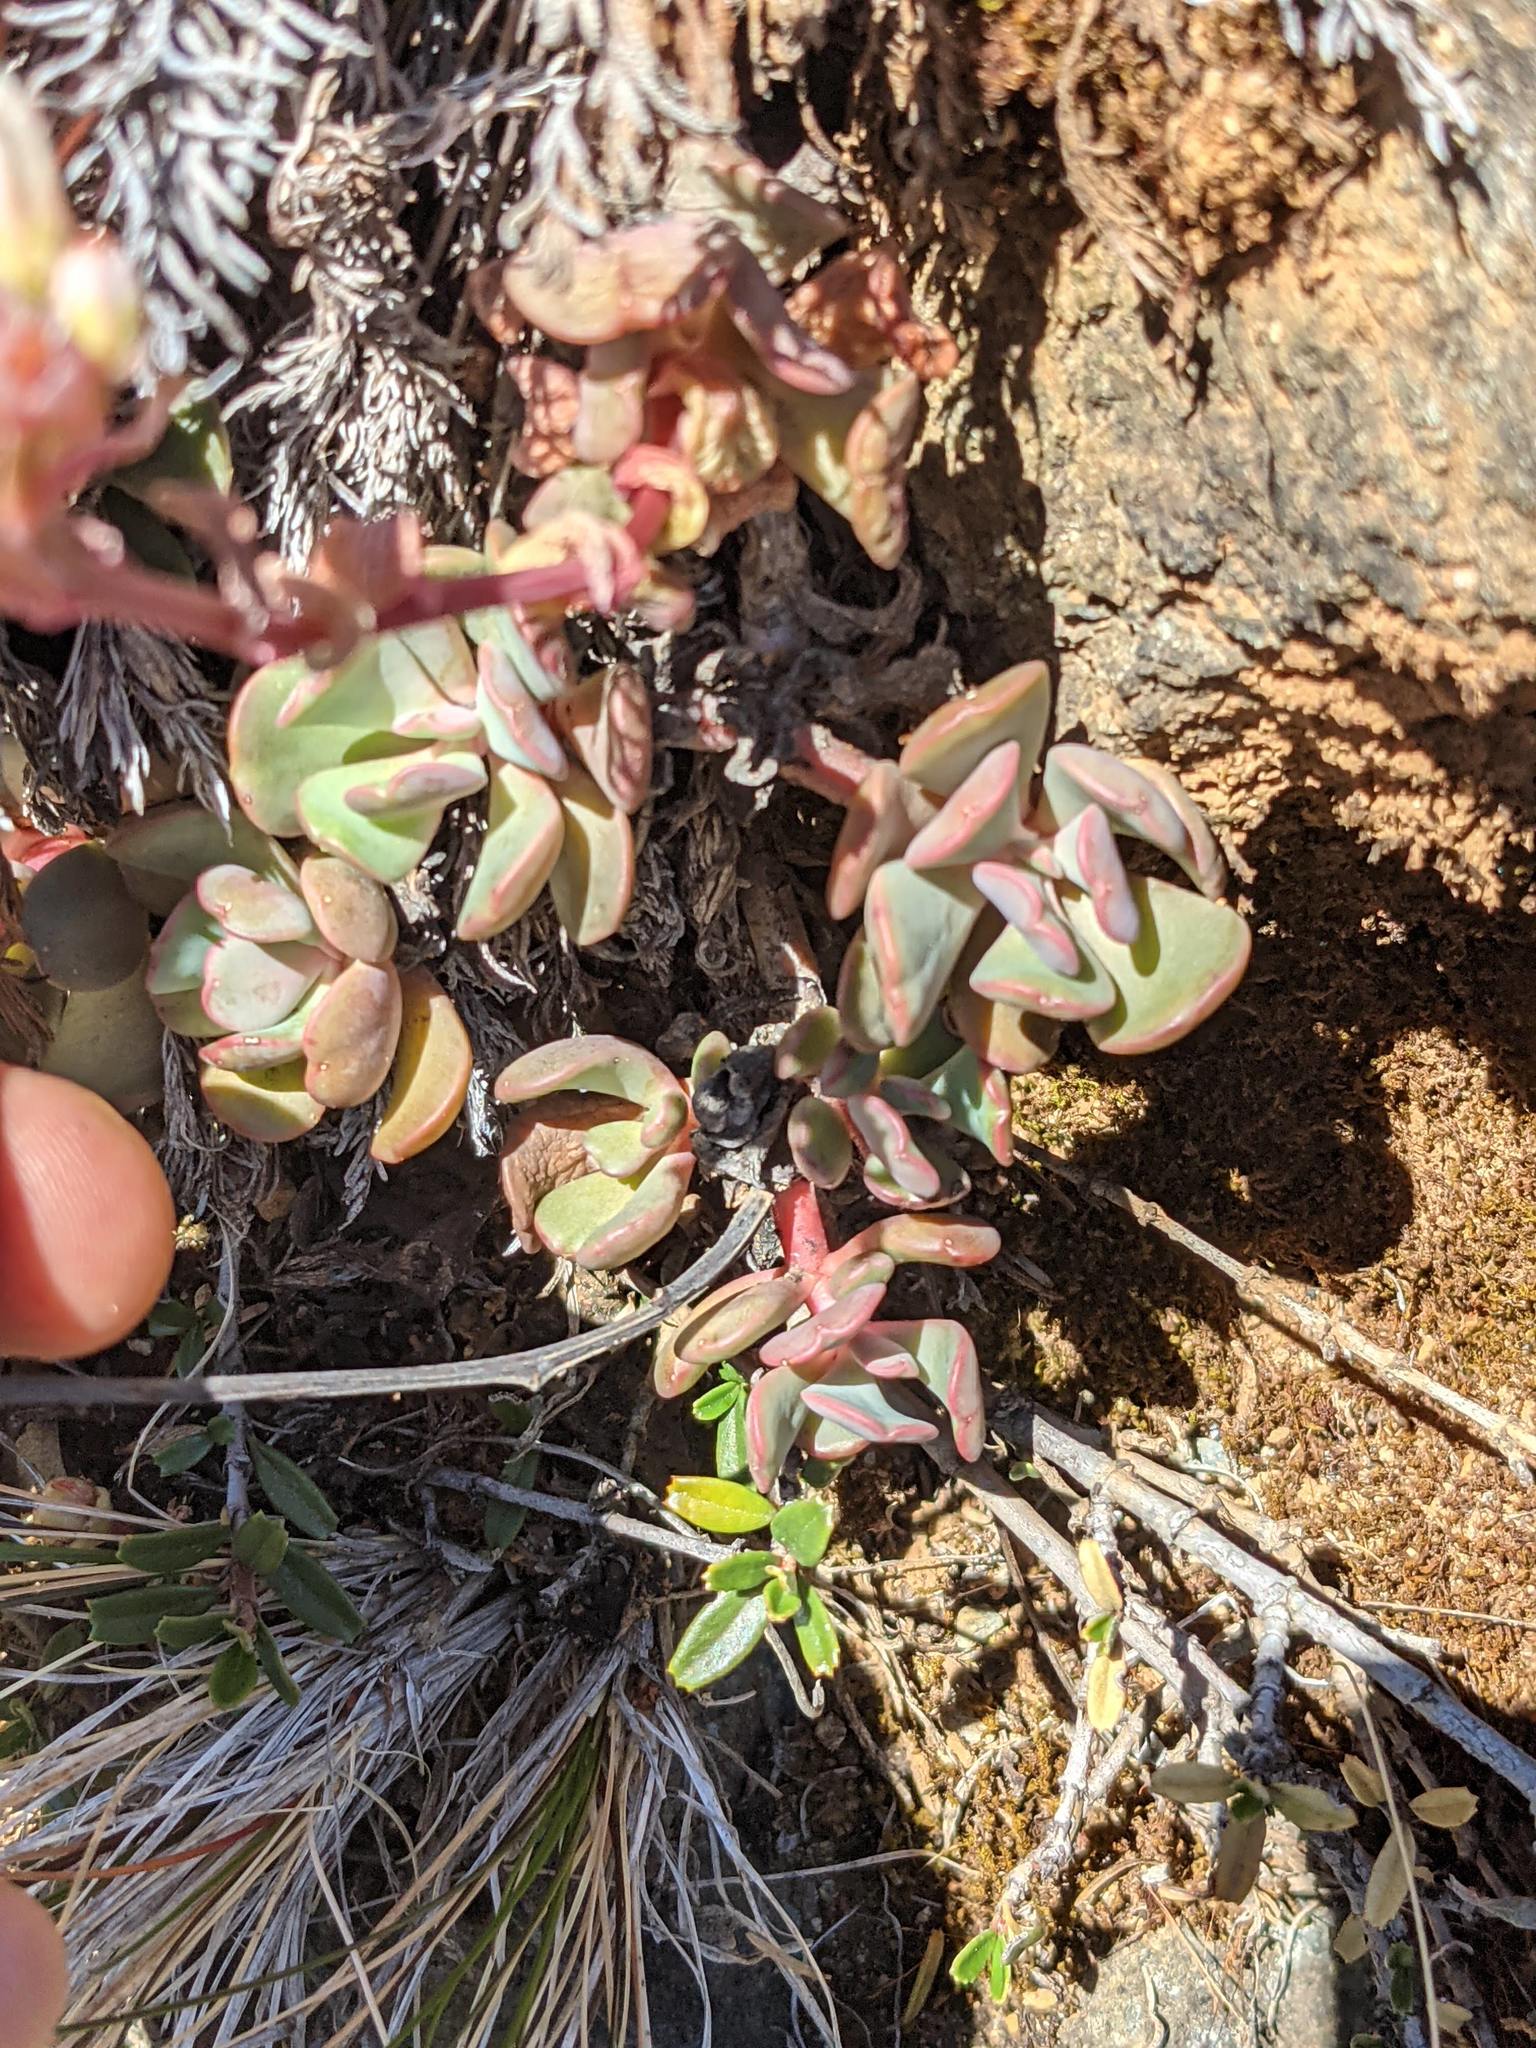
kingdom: Plantae
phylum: Tracheophyta
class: Magnoliopsida
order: Saxifragales
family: Crassulaceae
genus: Sedum
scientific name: Sedum laxum
